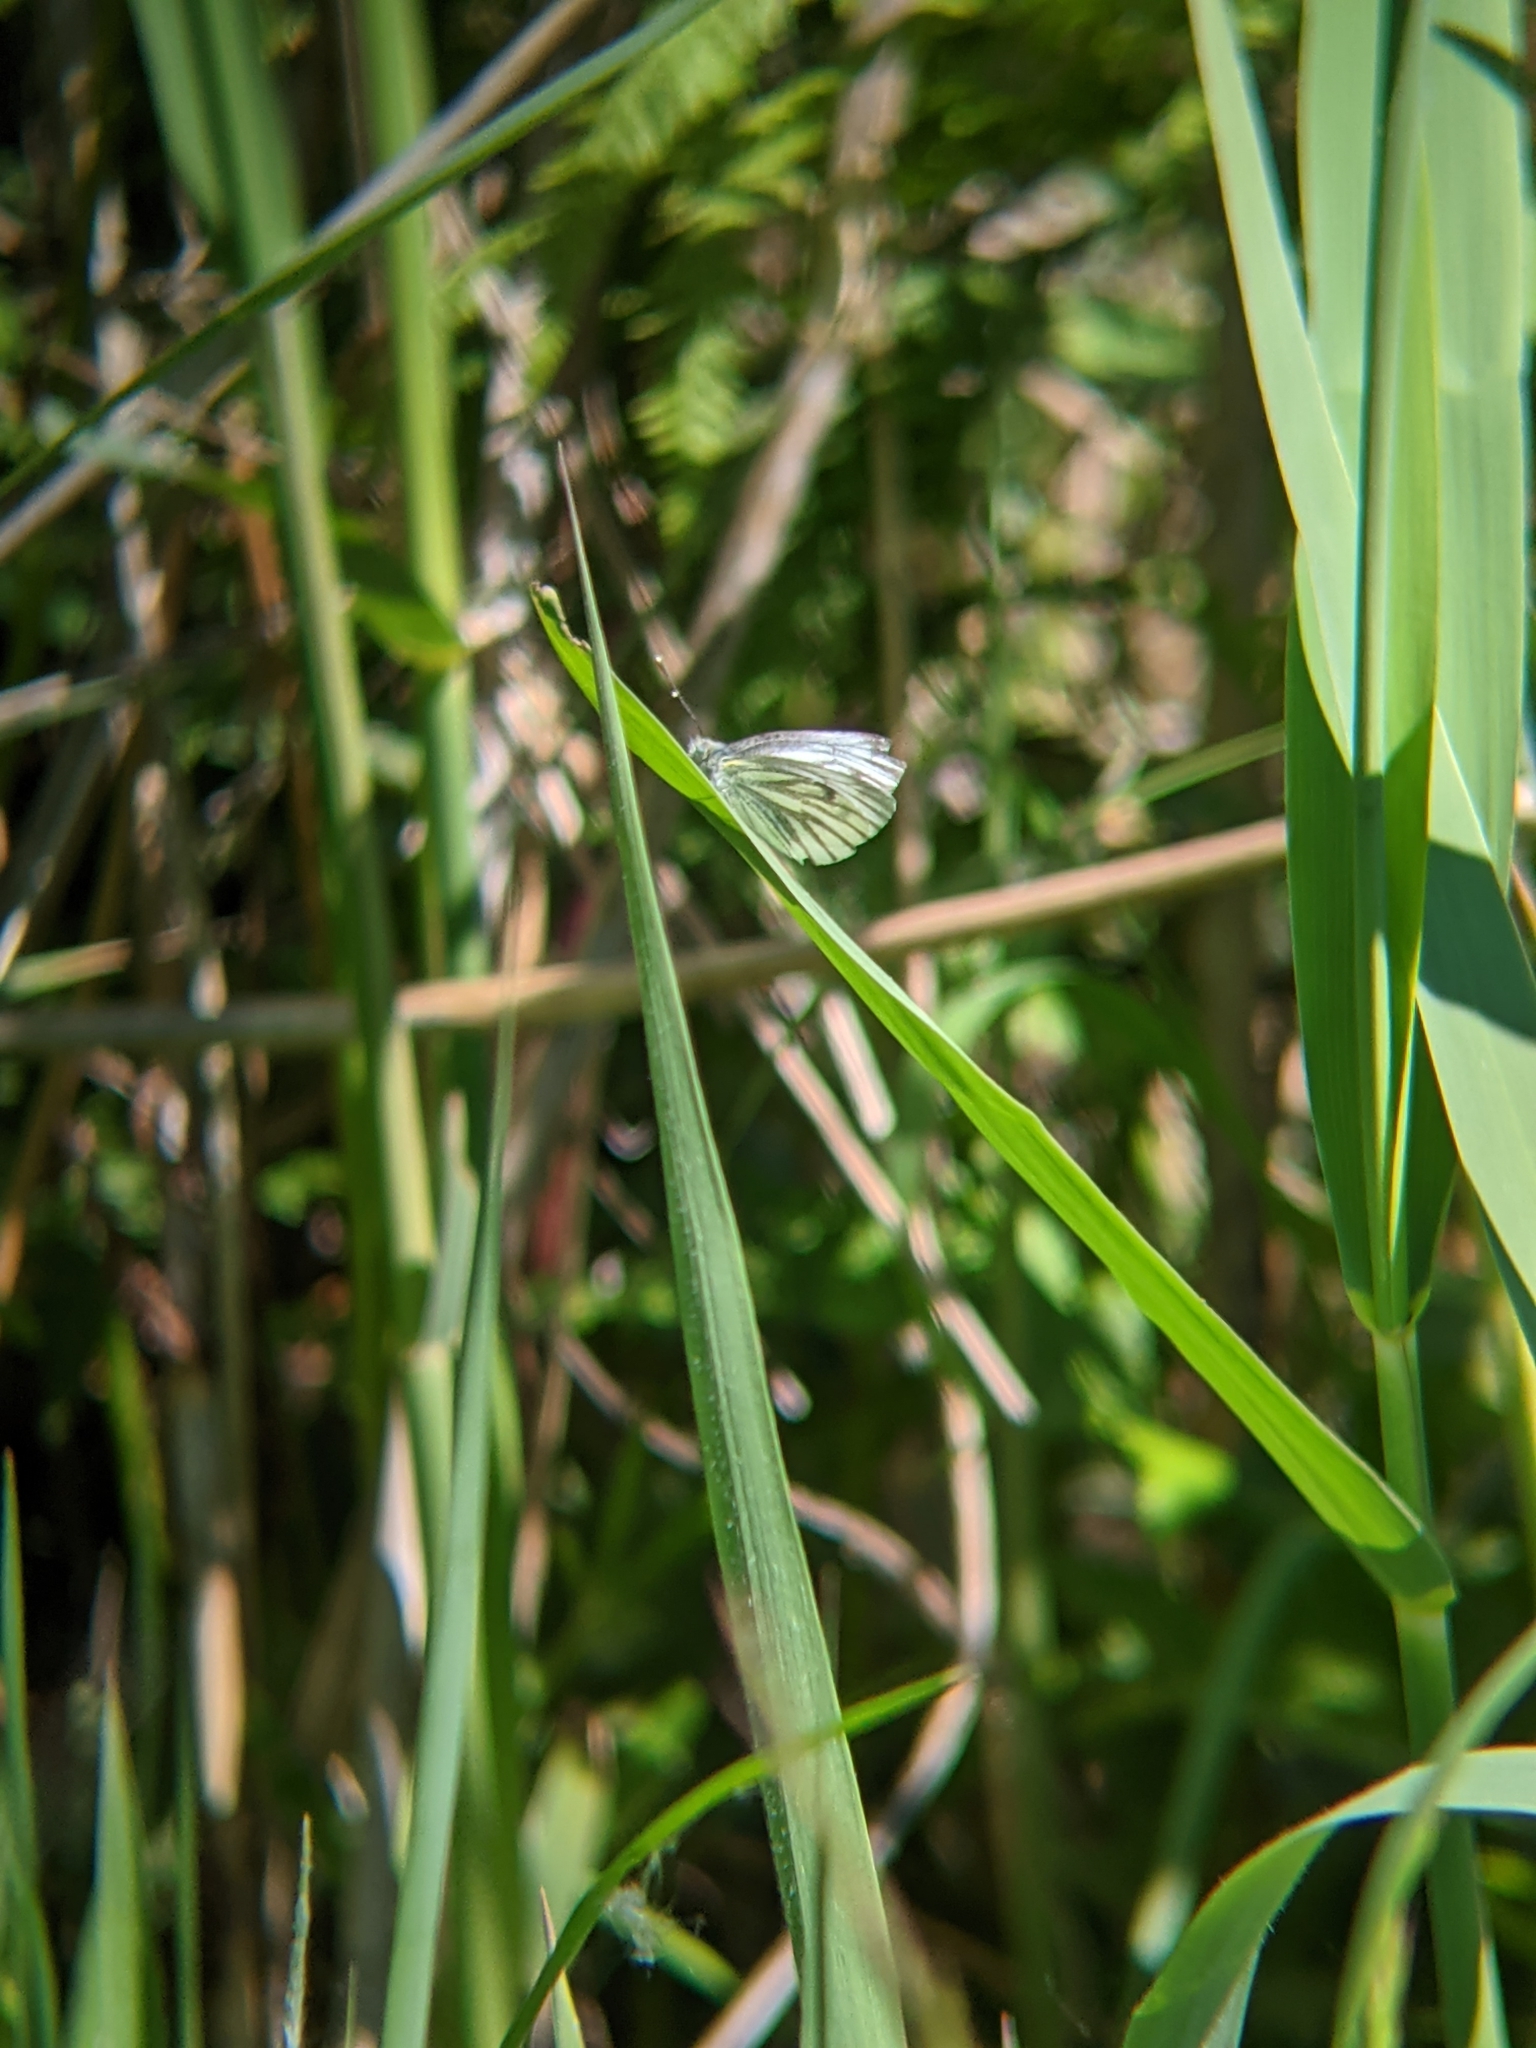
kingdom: Animalia
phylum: Arthropoda
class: Insecta
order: Lepidoptera
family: Pieridae
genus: Pieris
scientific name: Pieris napi
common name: Green-veined white
